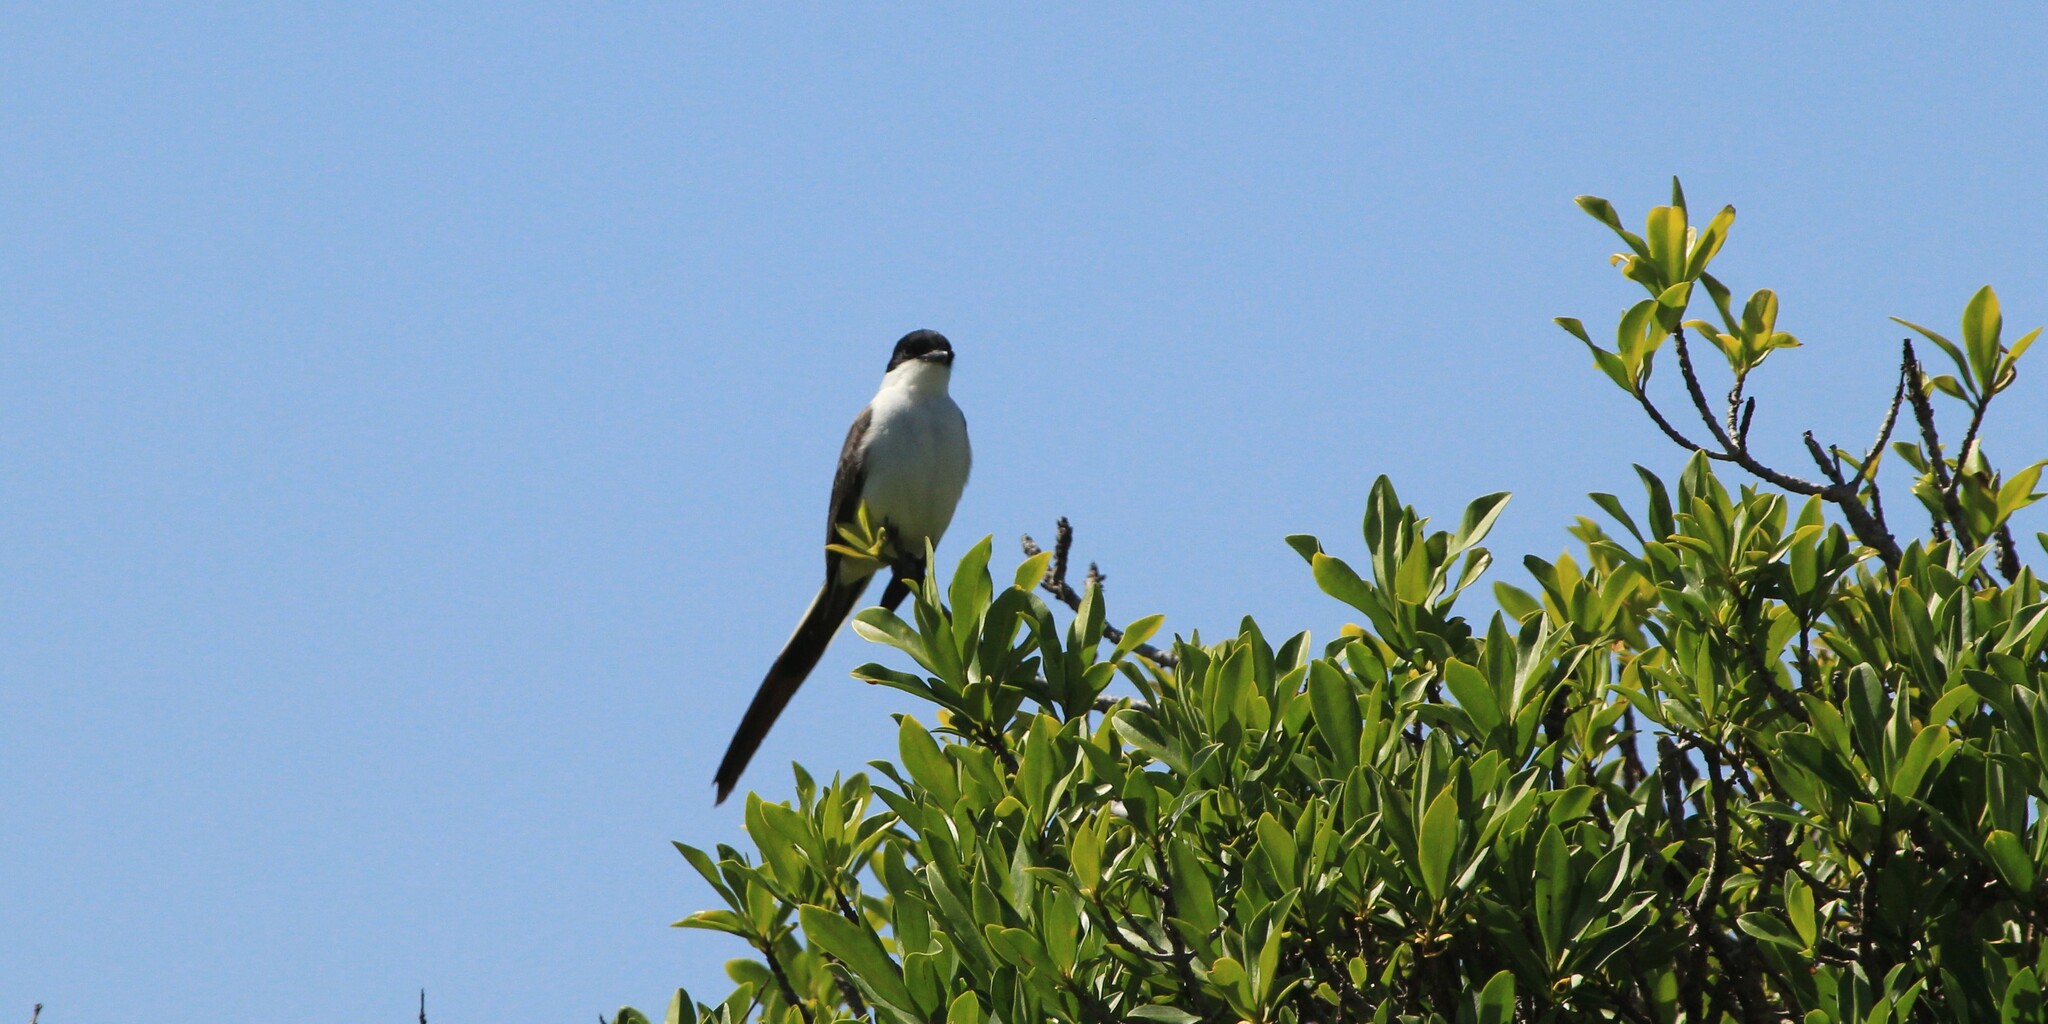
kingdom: Animalia
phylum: Chordata
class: Aves
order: Passeriformes
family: Tyrannidae
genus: Tyrannus
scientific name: Tyrannus savana
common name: Fork-tailed flycatcher
